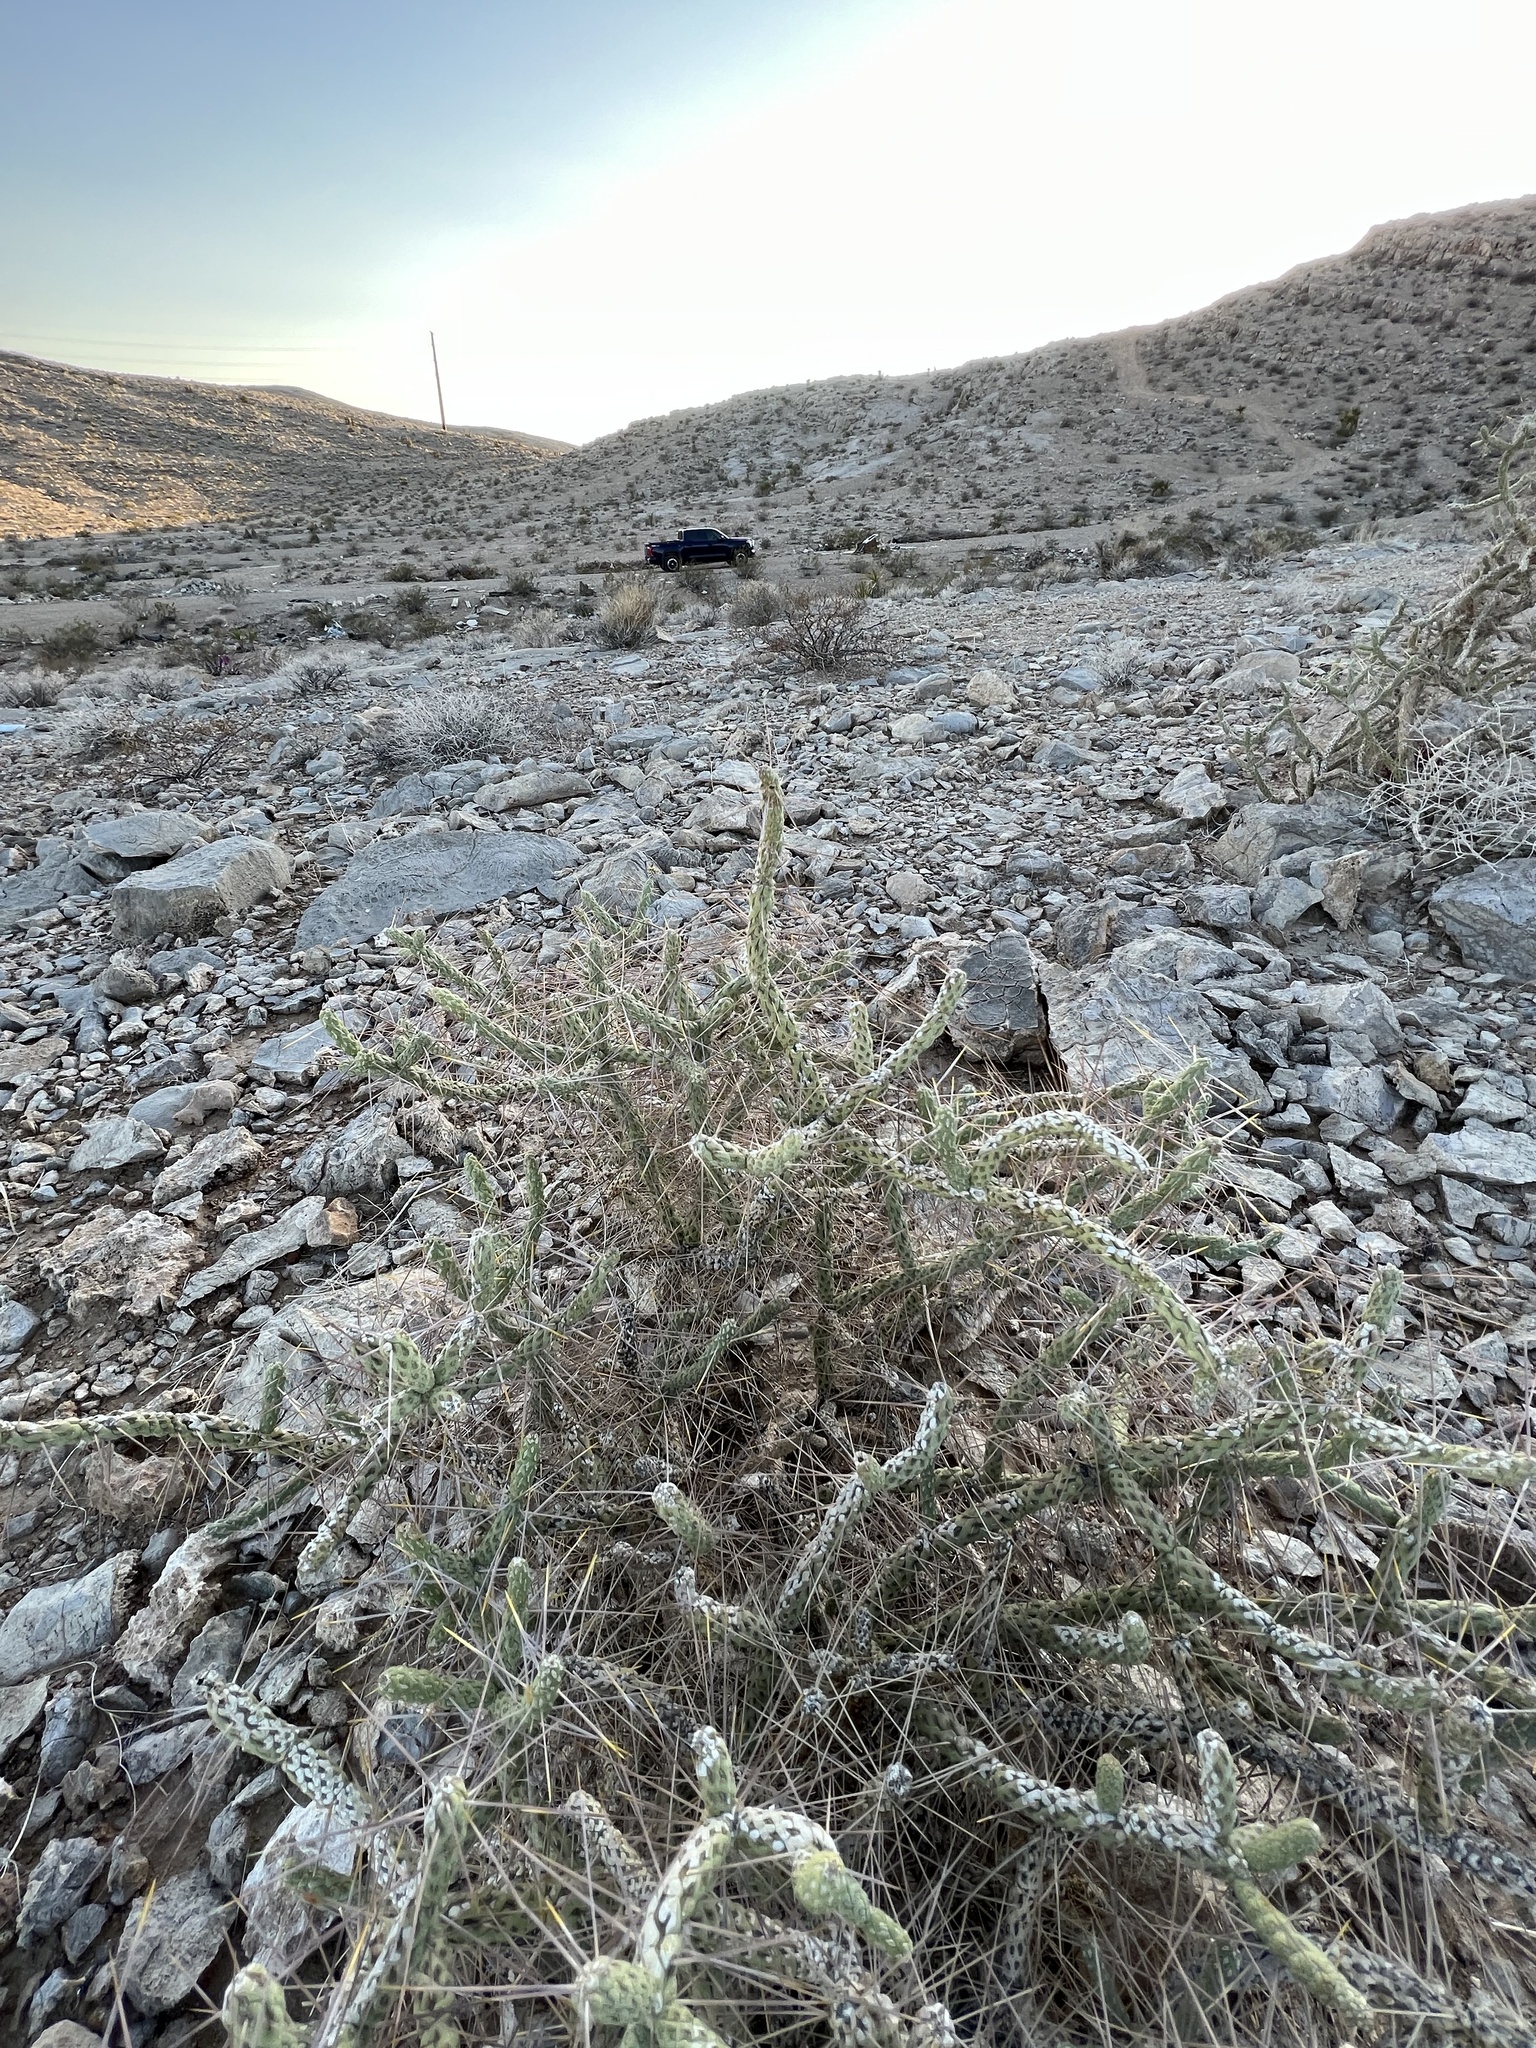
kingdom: Plantae
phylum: Tracheophyta
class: Magnoliopsida
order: Caryophyllales
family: Cactaceae
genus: Cylindropuntia
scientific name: Cylindropuntia ramosissima
